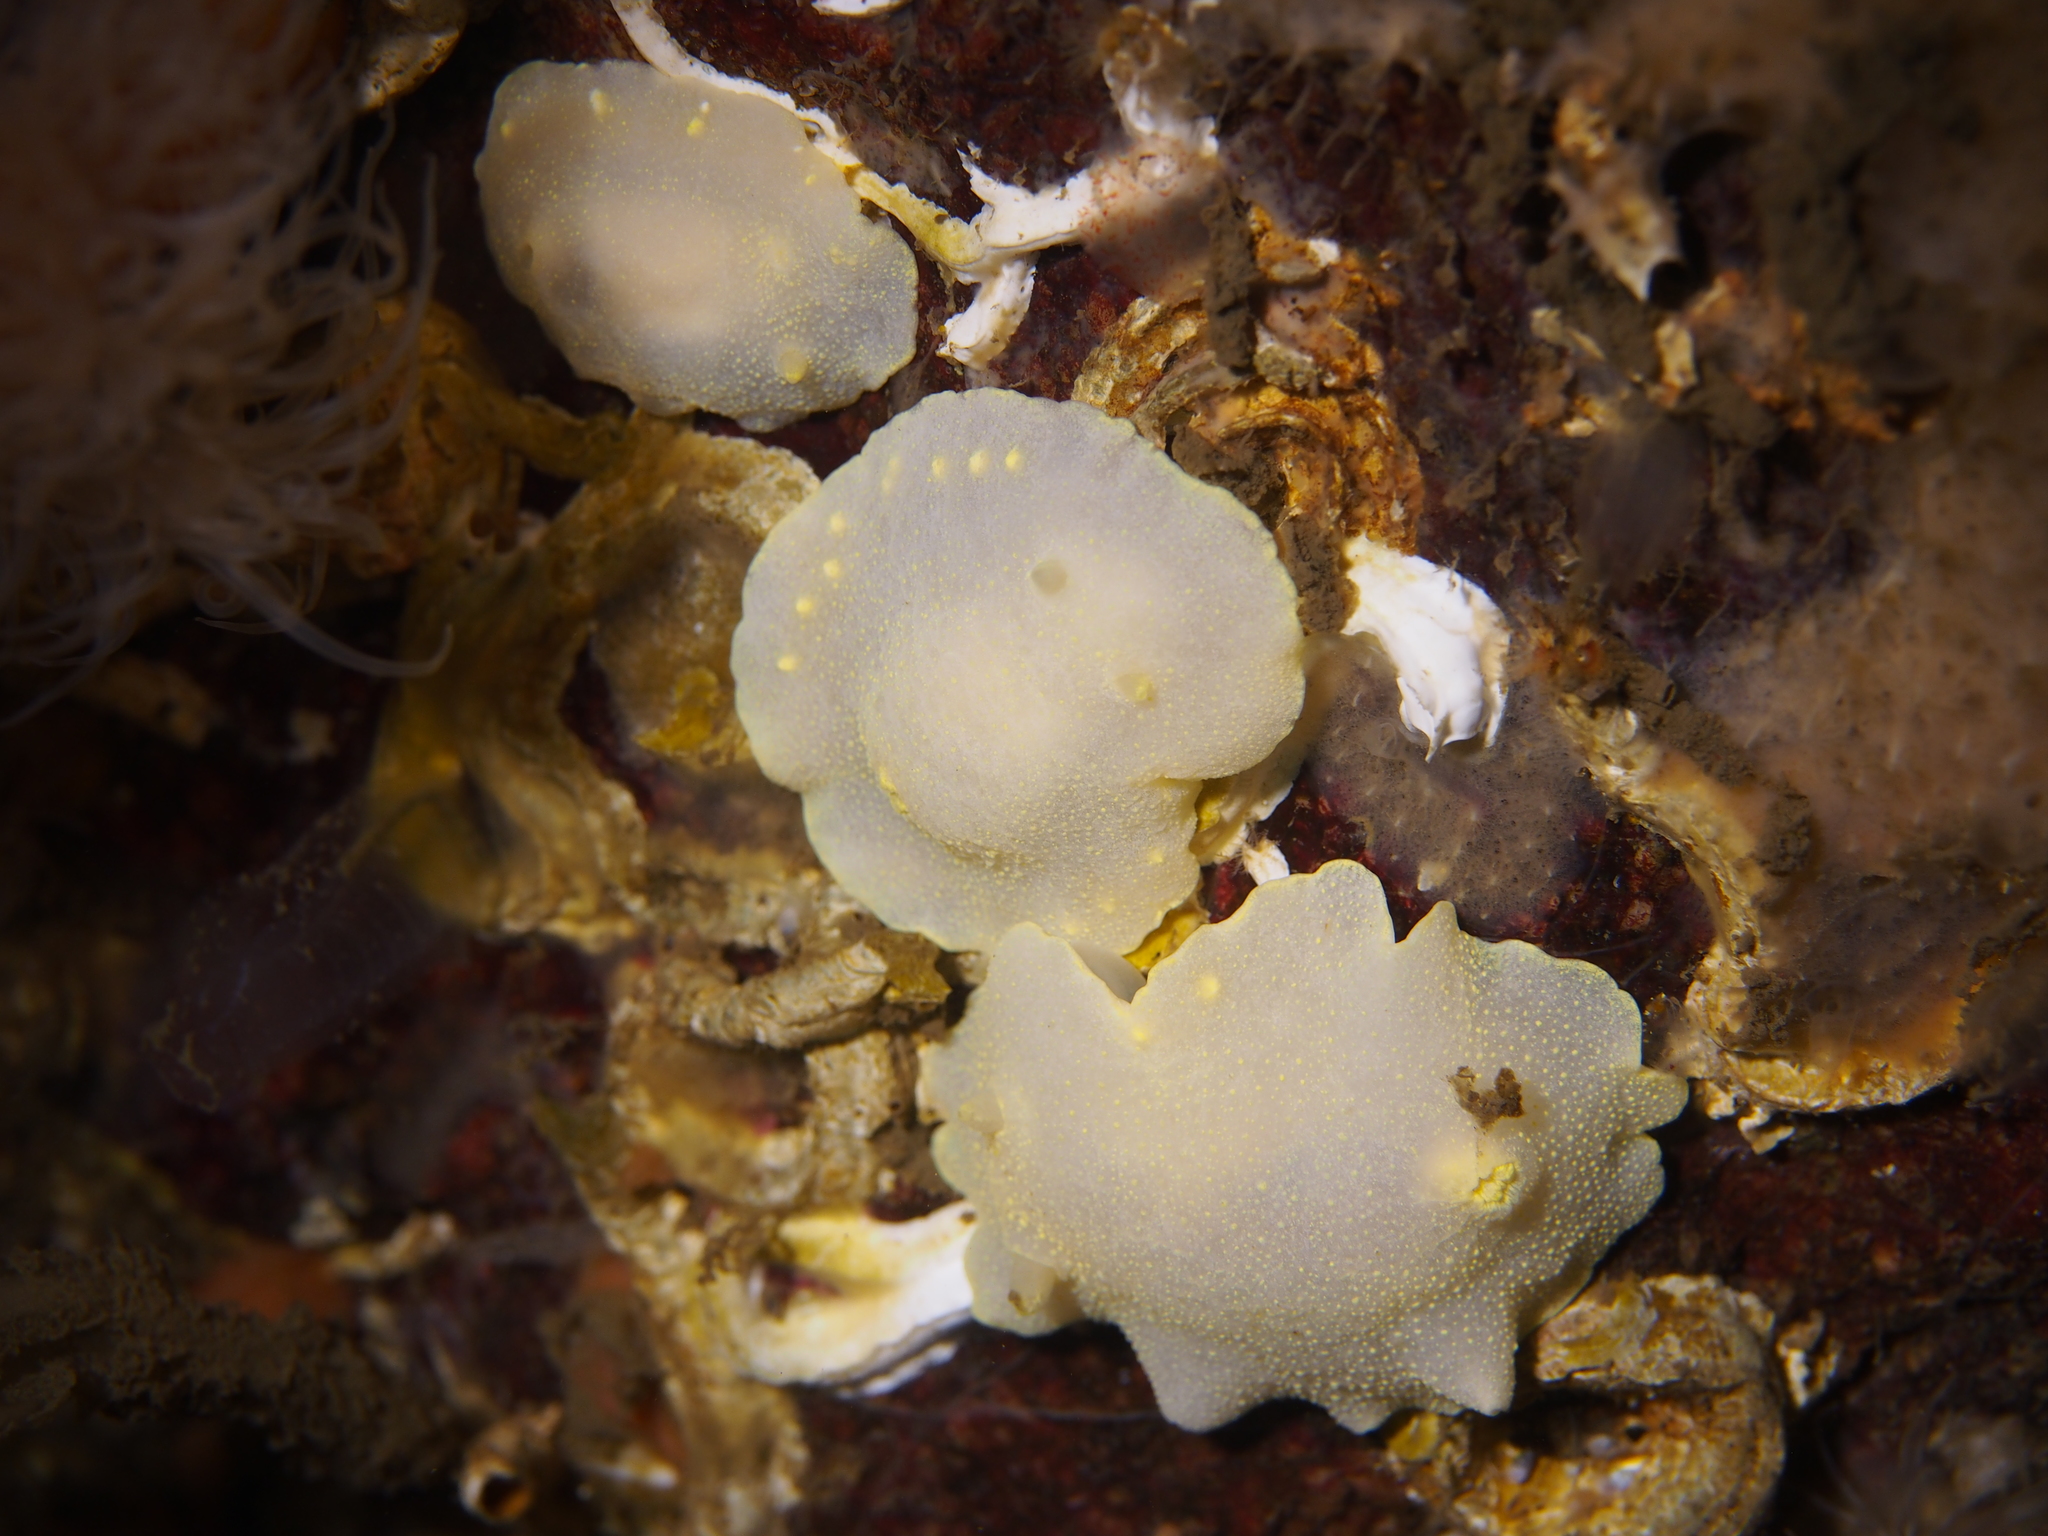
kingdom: Animalia
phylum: Mollusca
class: Gastropoda
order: Nudibranchia
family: Cadlinidae
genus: Cadlina
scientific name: Cadlina laevis
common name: White atlantic cadlina
